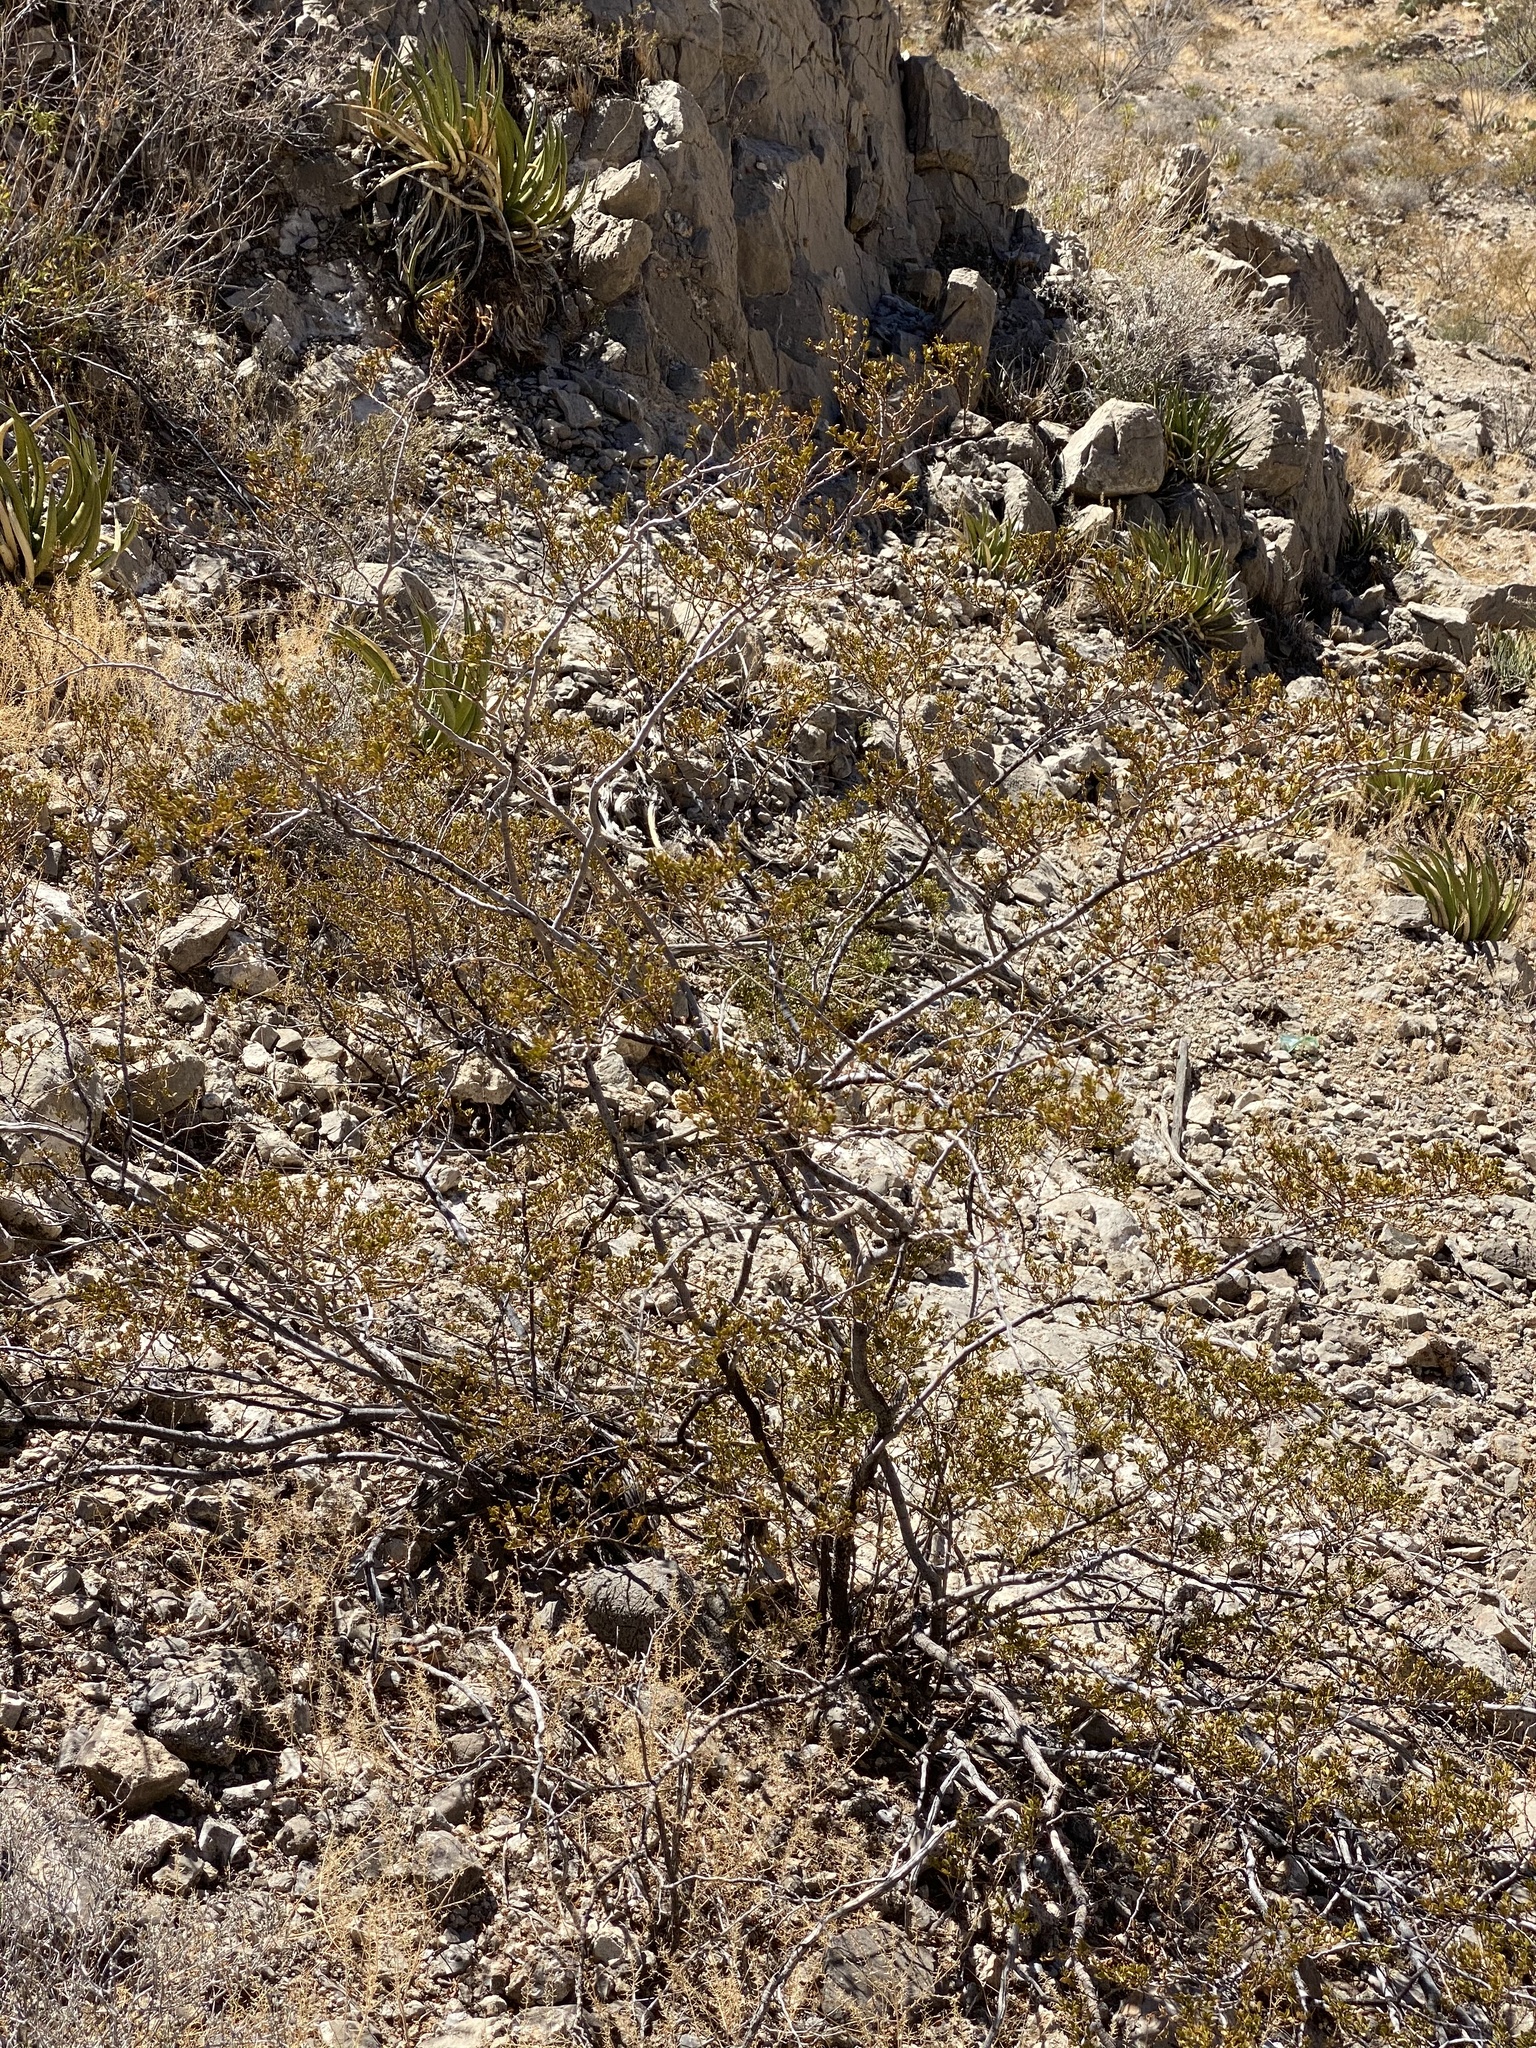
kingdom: Plantae
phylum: Tracheophyta
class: Magnoliopsida
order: Zygophyllales
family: Zygophyllaceae
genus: Larrea
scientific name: Larrea tridentata
